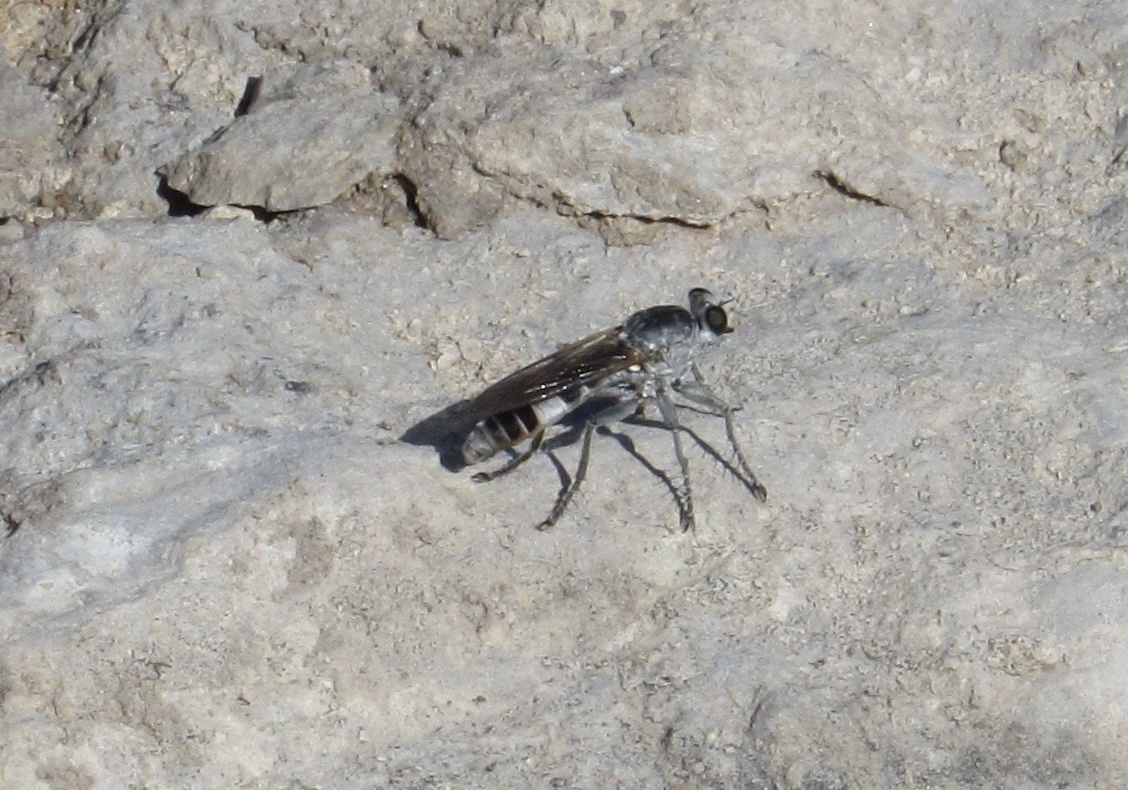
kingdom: Animalia
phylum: Arthropoda
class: Insecta
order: Diptera
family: Asilidae
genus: Stichopogon
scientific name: Stichopogon trifasciatus
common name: Three-banded robber fly
